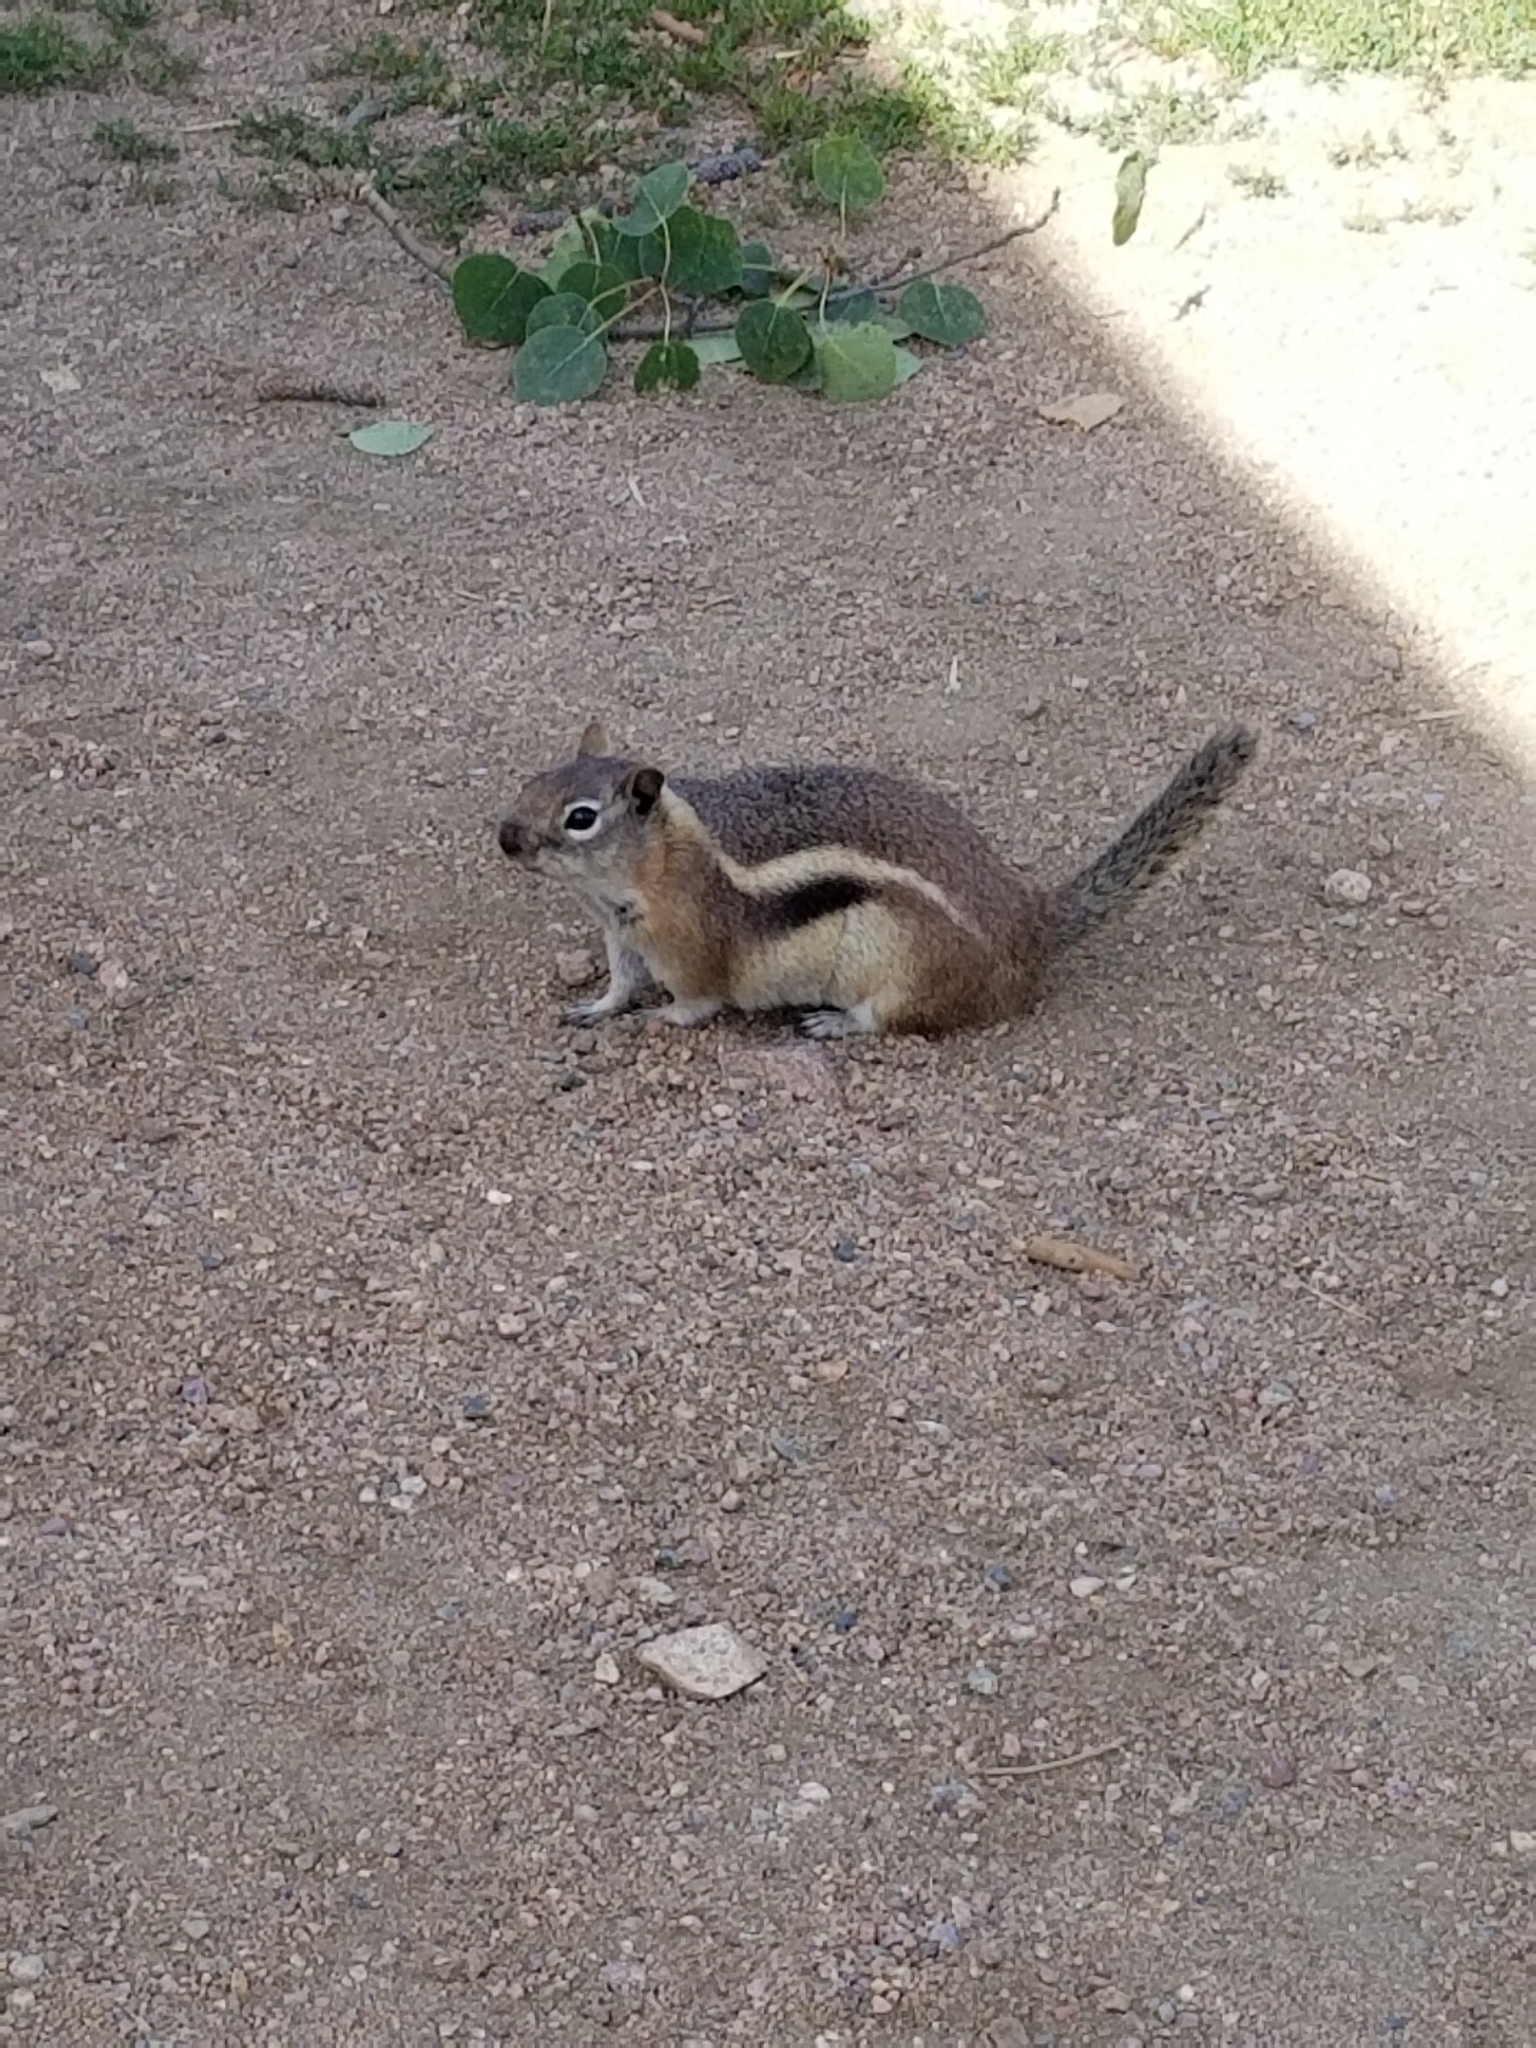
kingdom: Animalia
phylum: Chordata
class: Mammalia
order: Rodentia
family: Sciuridae
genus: Callospermophilus
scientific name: Callospermophilus lateralis
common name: Golden-mantled ground squirrel
